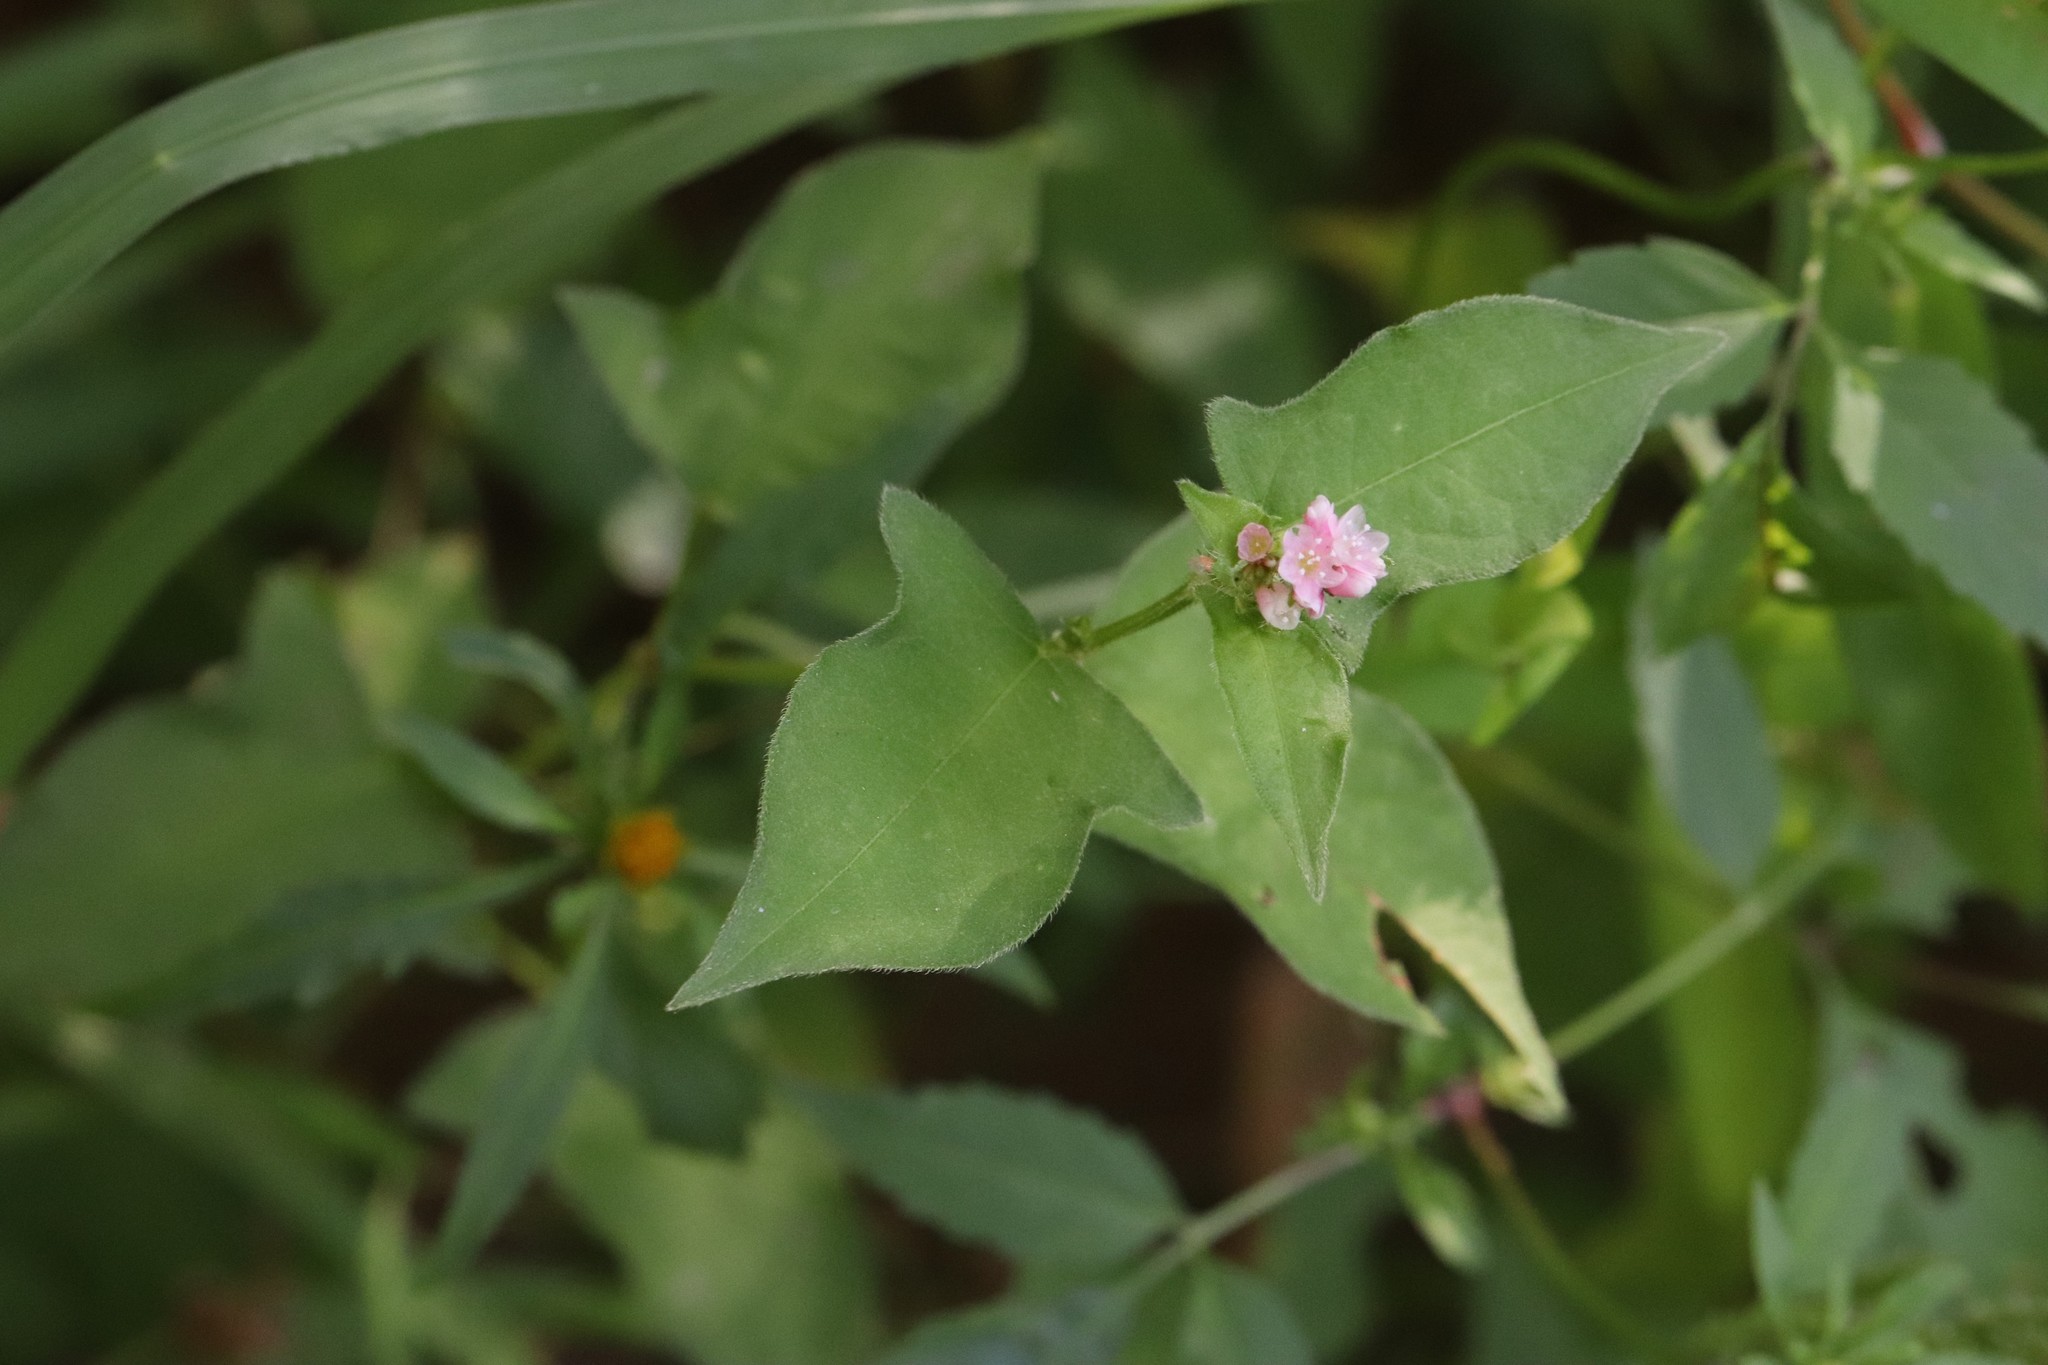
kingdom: Plantae
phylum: Tracheophyta
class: Magnoliopsida
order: Caryophyllales
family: Polygonaceae
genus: Persicaria
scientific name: Persicaria thunbergii
